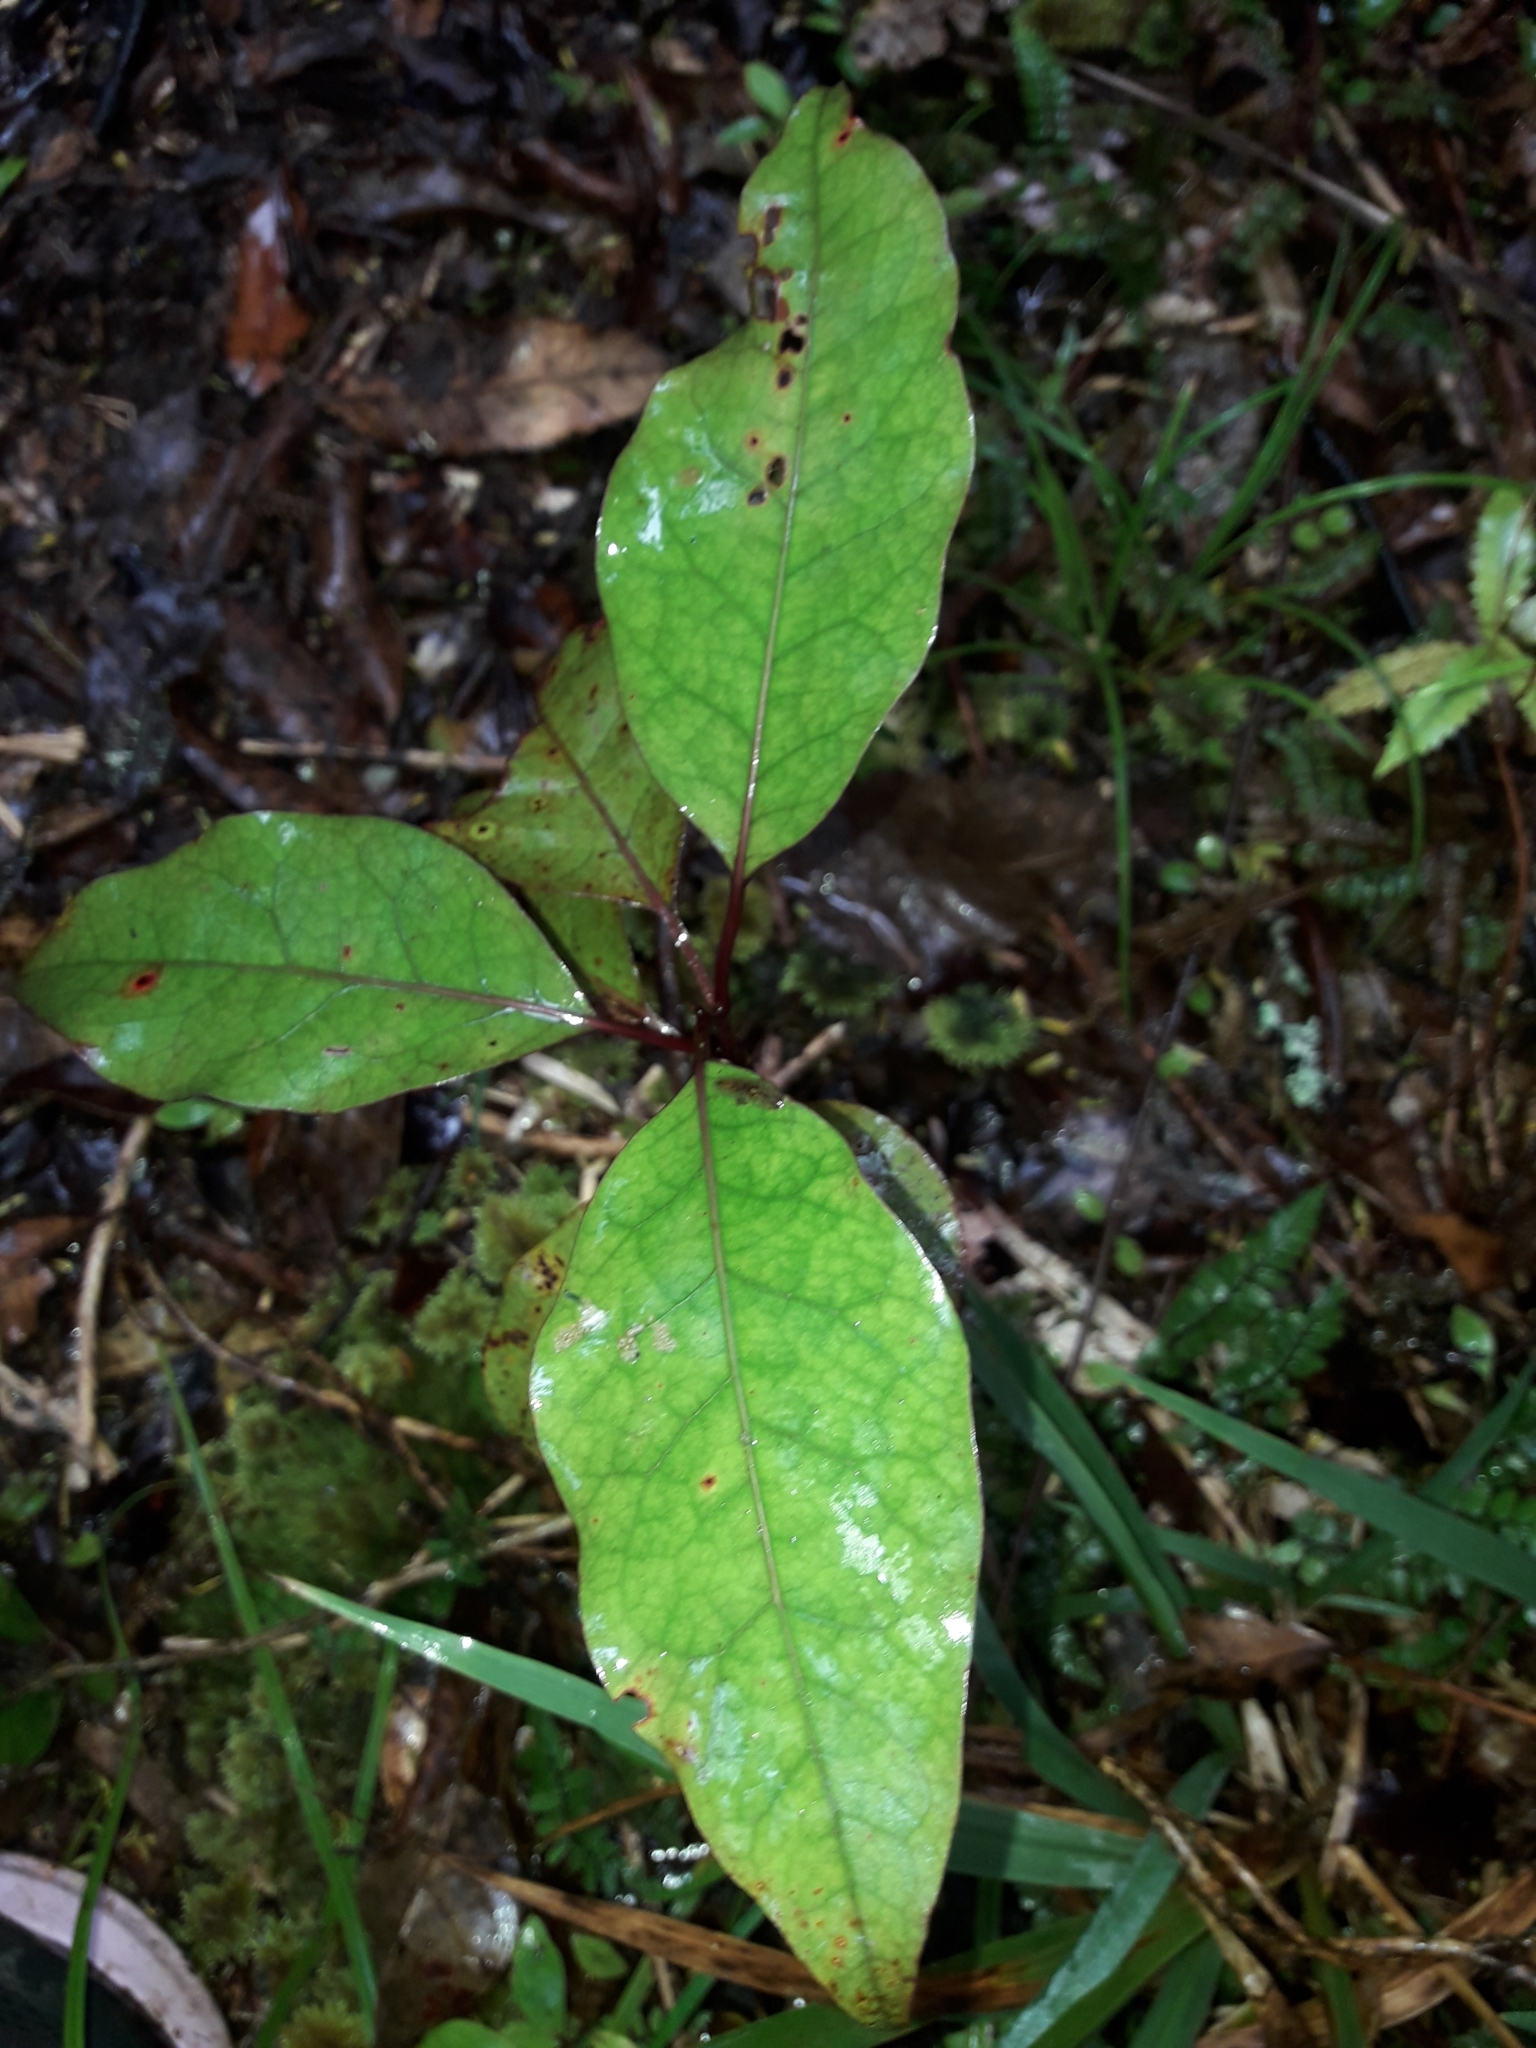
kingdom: Plantae
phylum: Tracheophyta
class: Magnoliopsida
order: Laurales
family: Lauraceae
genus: Litsea
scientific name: Litsea calicaris
